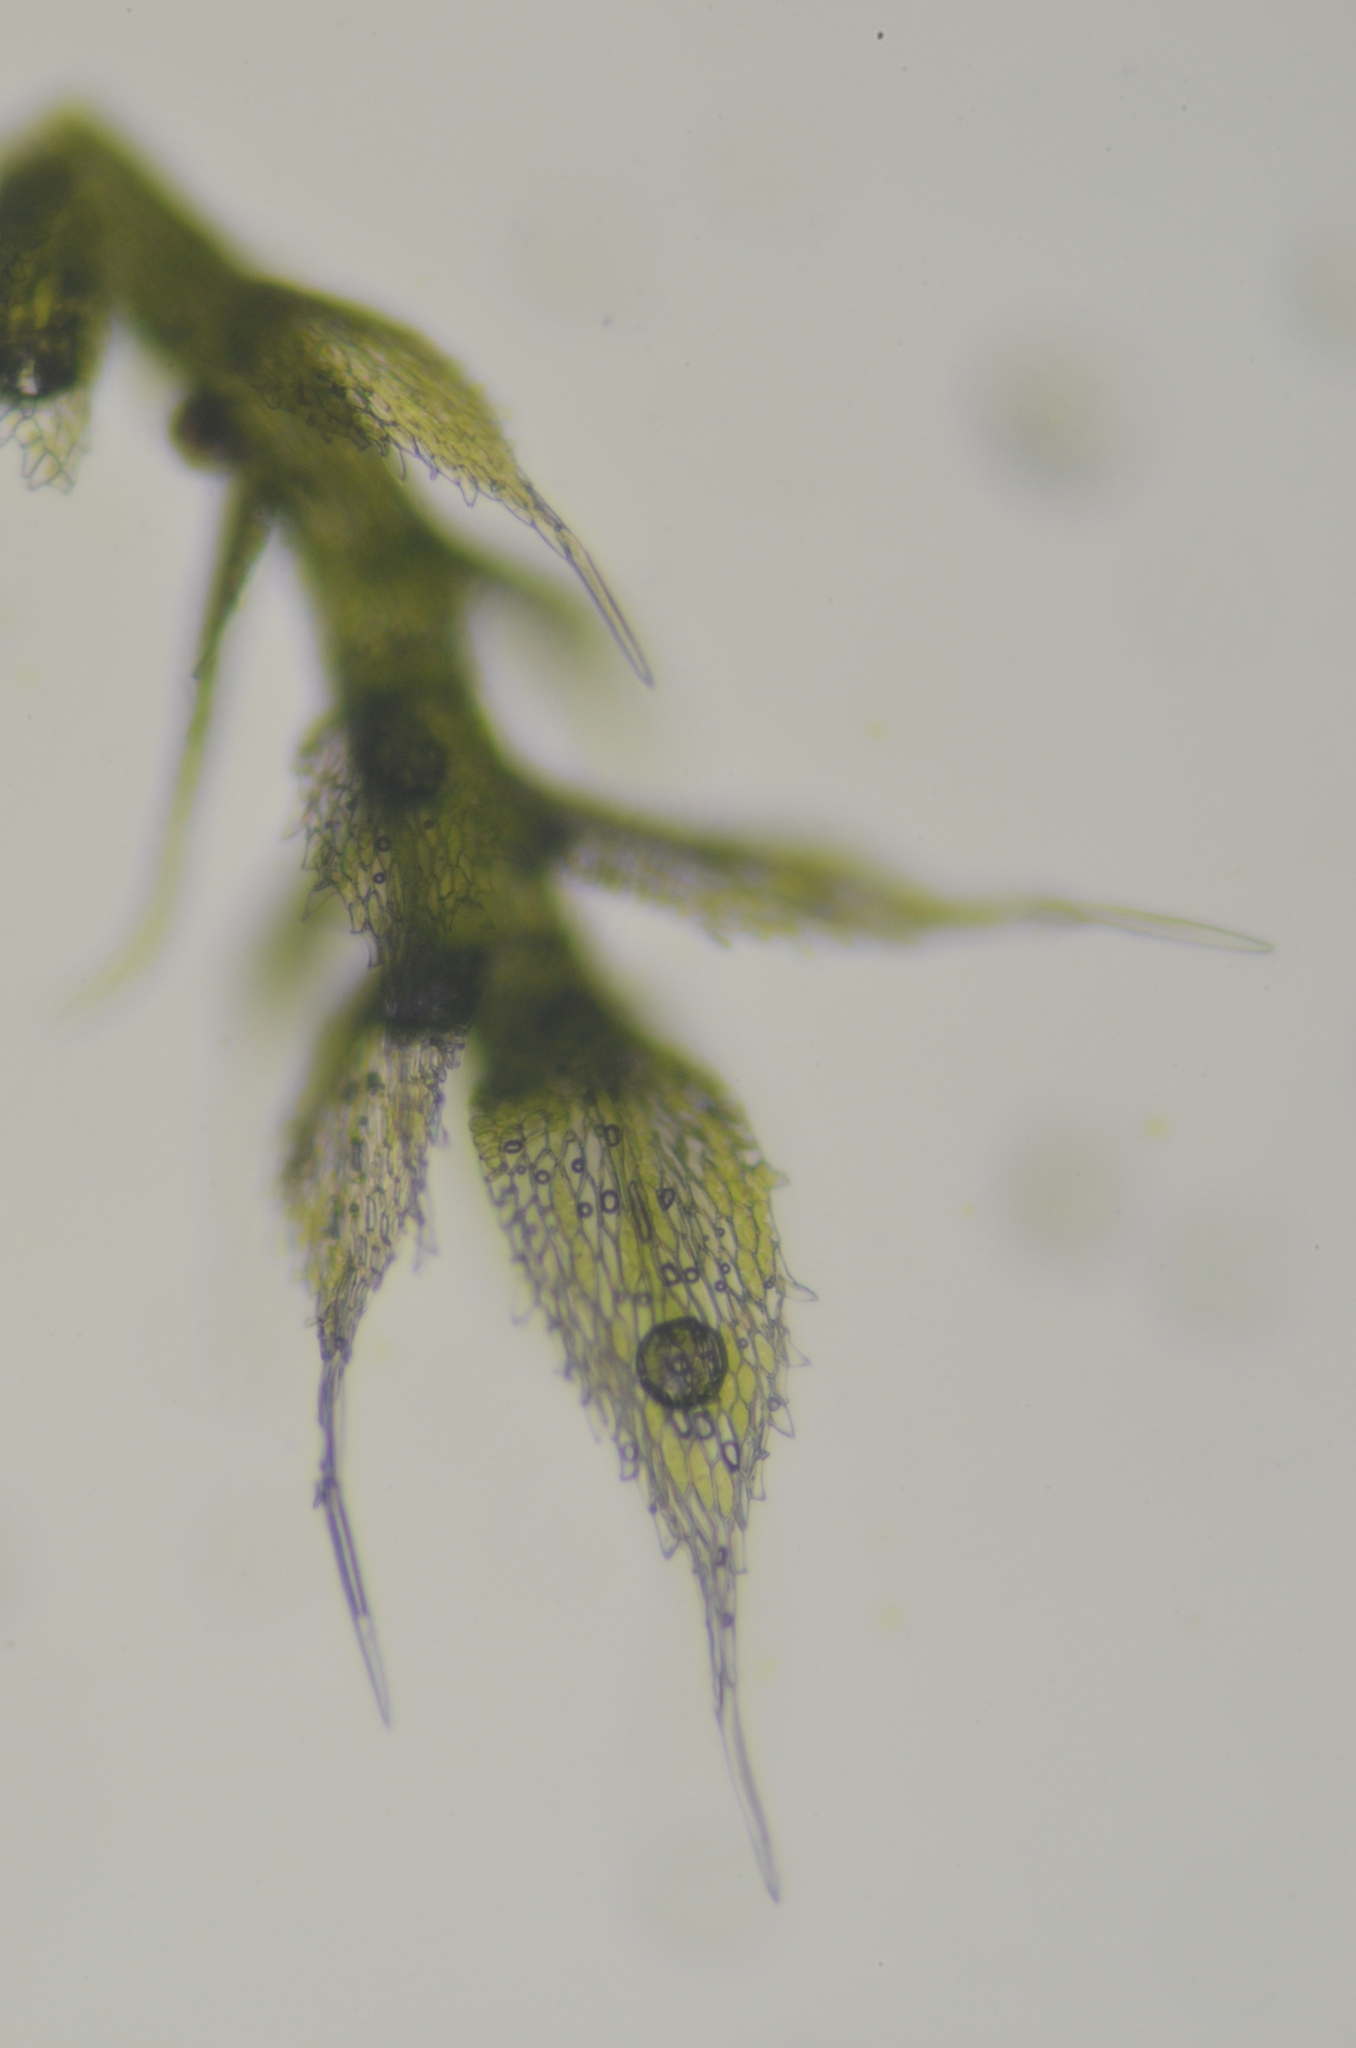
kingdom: Plantae
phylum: Bryophyta
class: Bryopsida
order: Hypnales
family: Fabroniaceae
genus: Fabronia
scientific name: Fabronia ciliaris
